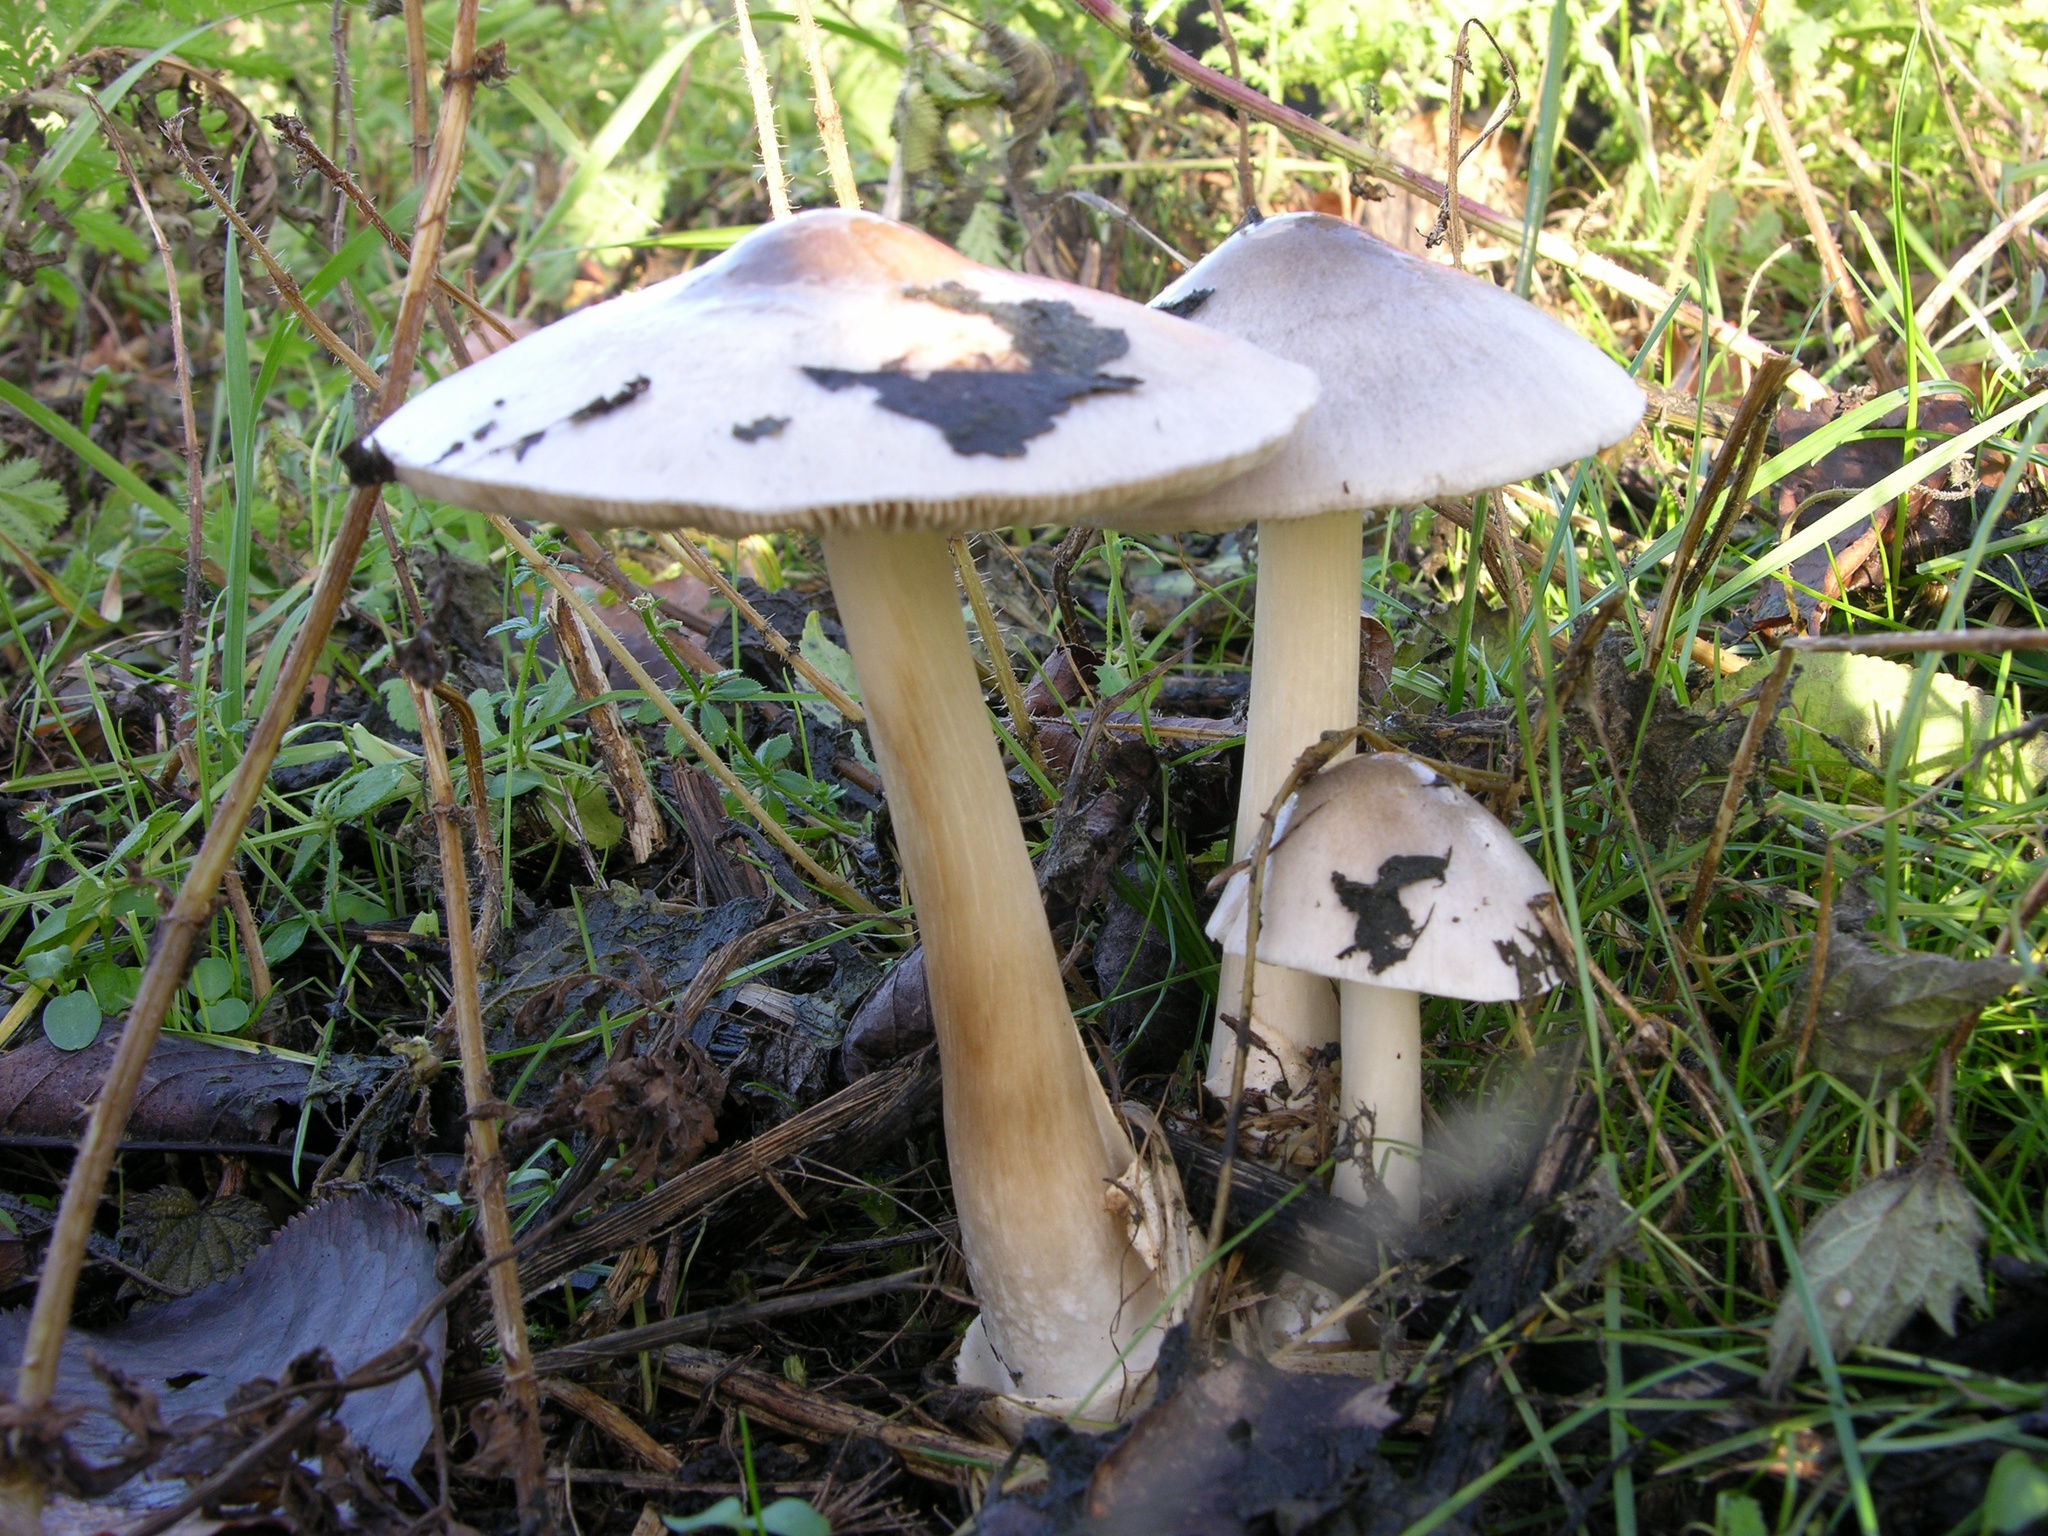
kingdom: Fungi
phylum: Basidiomycota
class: Agaricomycetes
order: Agaricales
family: Pluteaceae
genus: Volvopluteus
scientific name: Volvopluteus gloiocephalus
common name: Stubble rosegill
